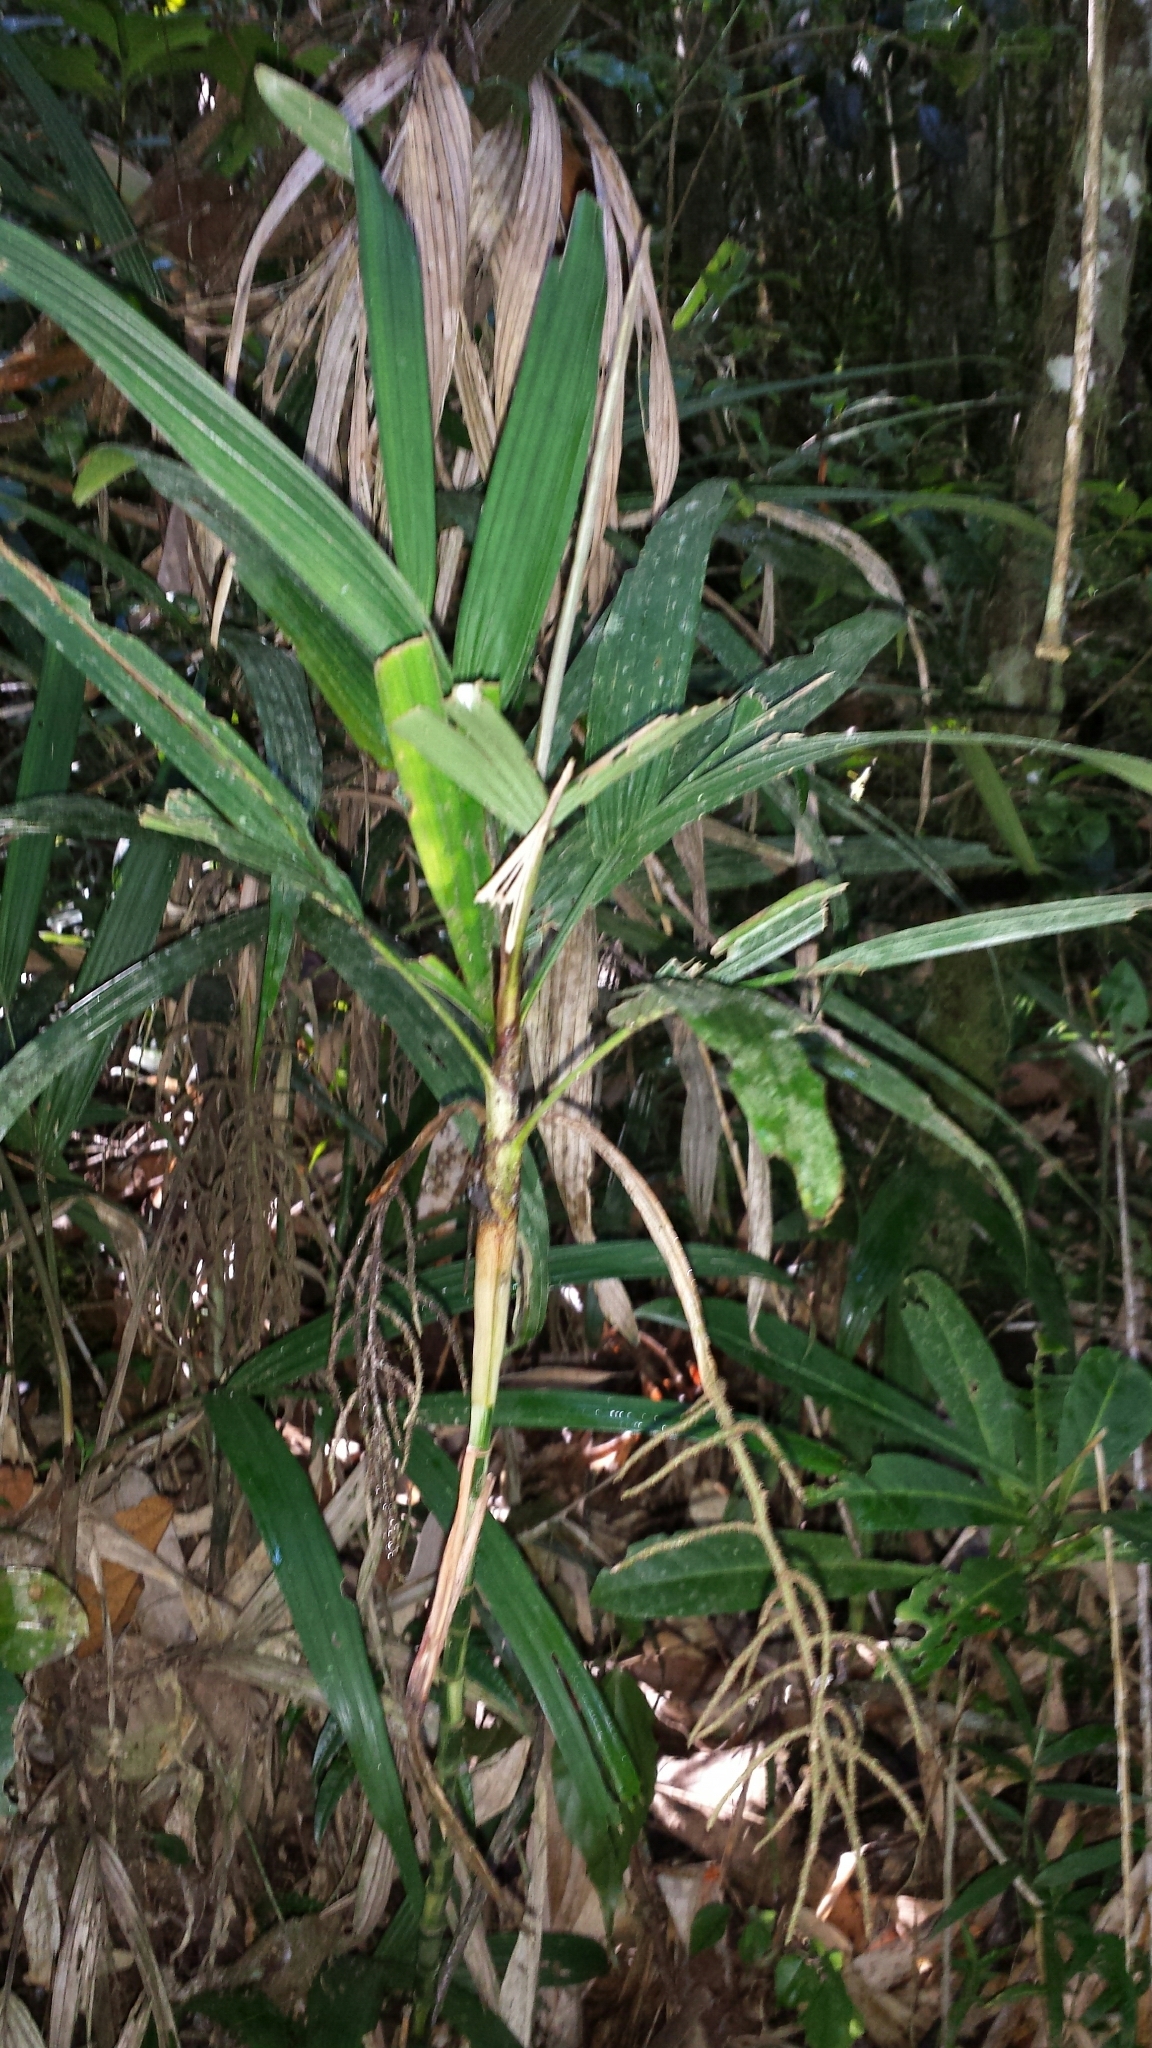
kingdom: Plantae
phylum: Tracheophyta
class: Liliopsida
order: Arecales
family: Arecaceae
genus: Dypsis
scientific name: Dypsis hildebrandtii
